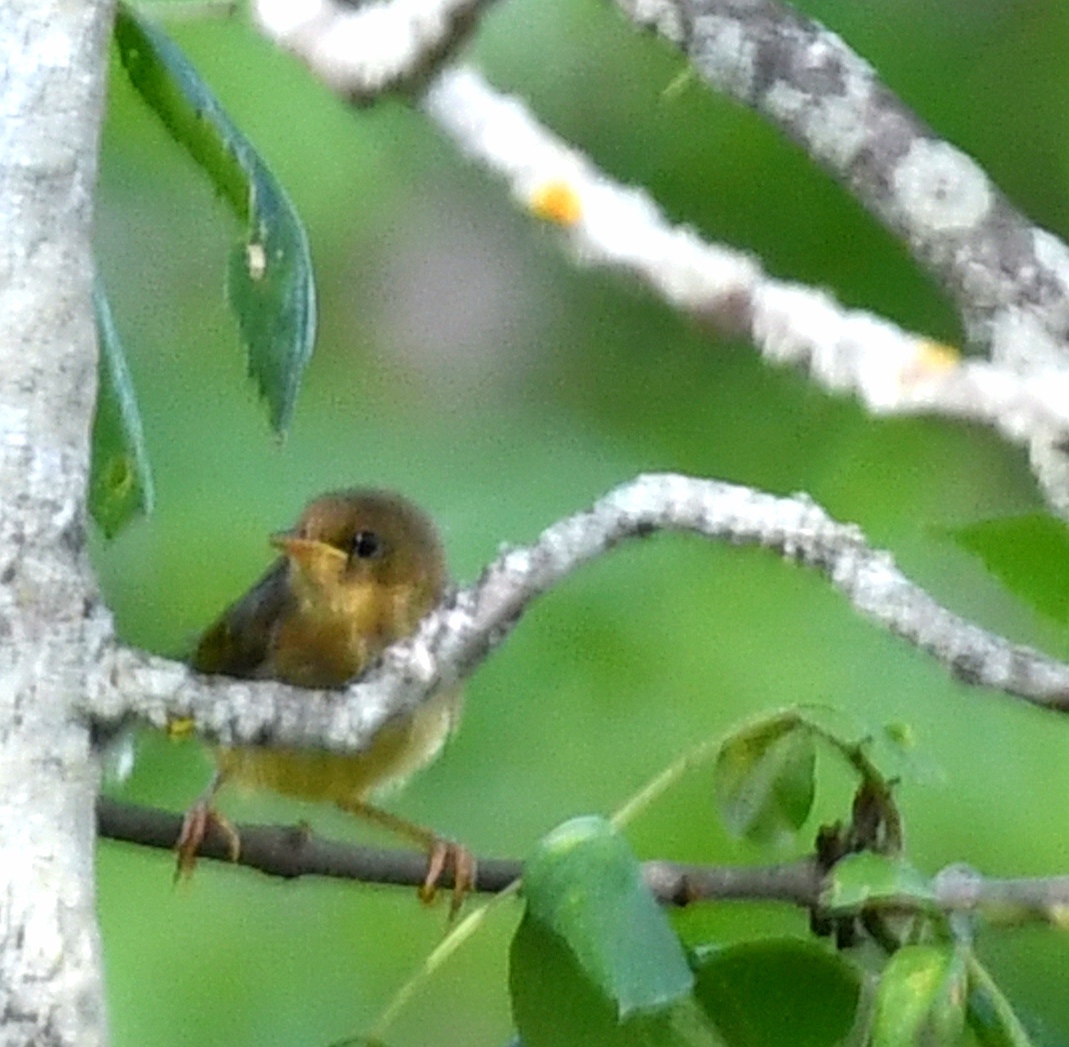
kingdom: Animalia
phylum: Chordata
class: Aves
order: Passeriformes
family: Parulidae
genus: Geothlypis
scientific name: Geothlypis trichas
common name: Common yellowthroat
